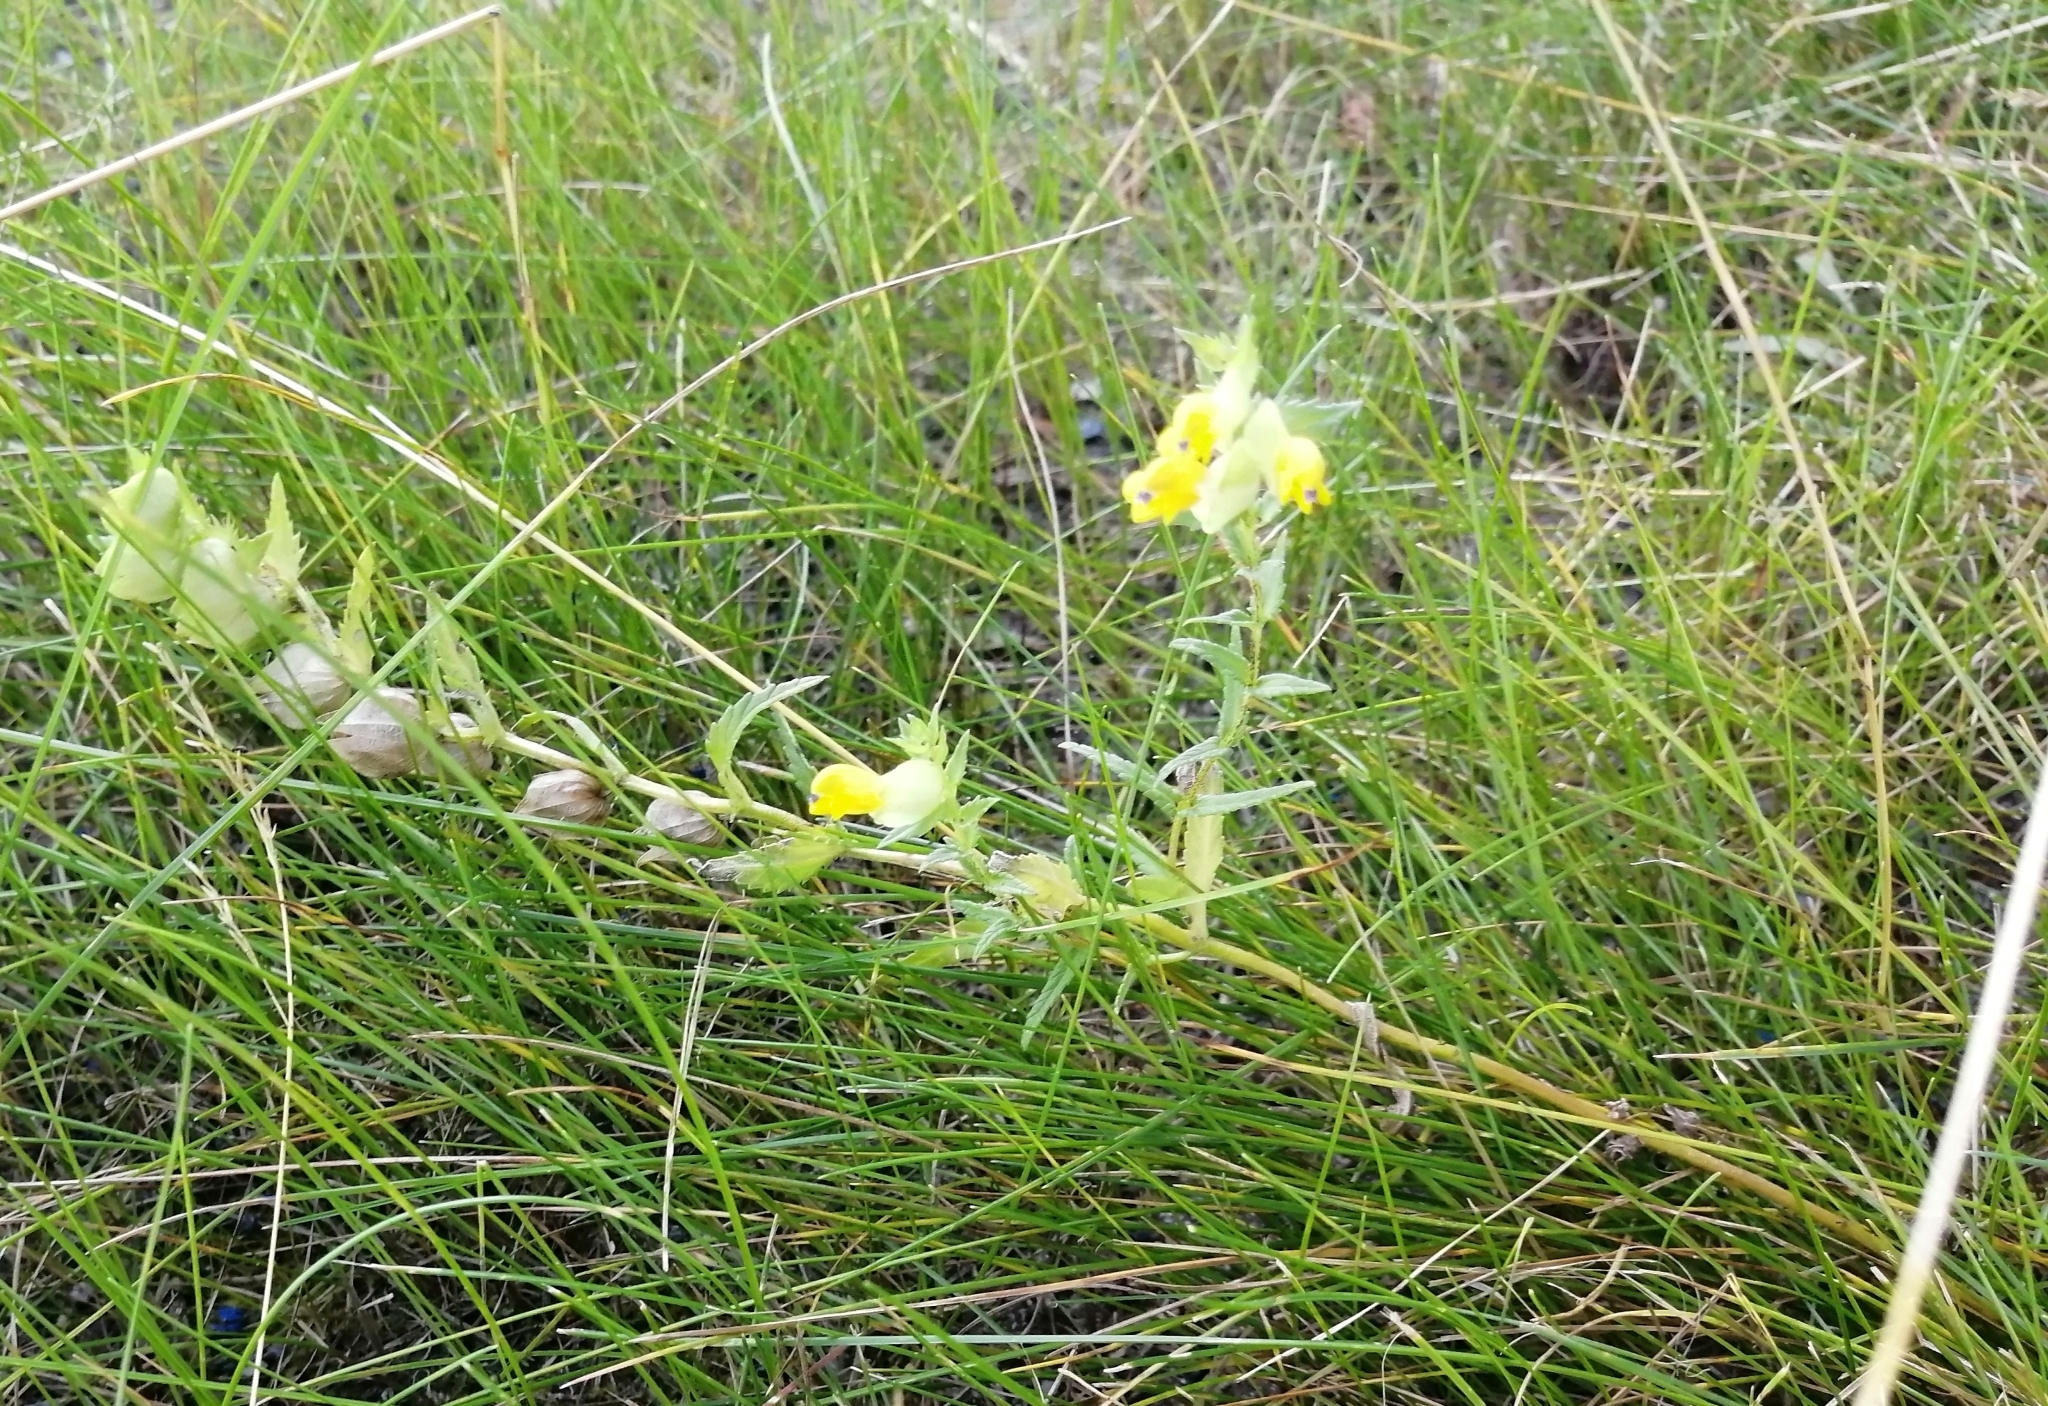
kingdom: Plantae
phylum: Tracheophyta
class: Magnoliopsida
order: Lamiales
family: Orobanchaceae
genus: Rhinanthus
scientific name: Rhinanthus serotinus
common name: Late-flowering yellow rattle
